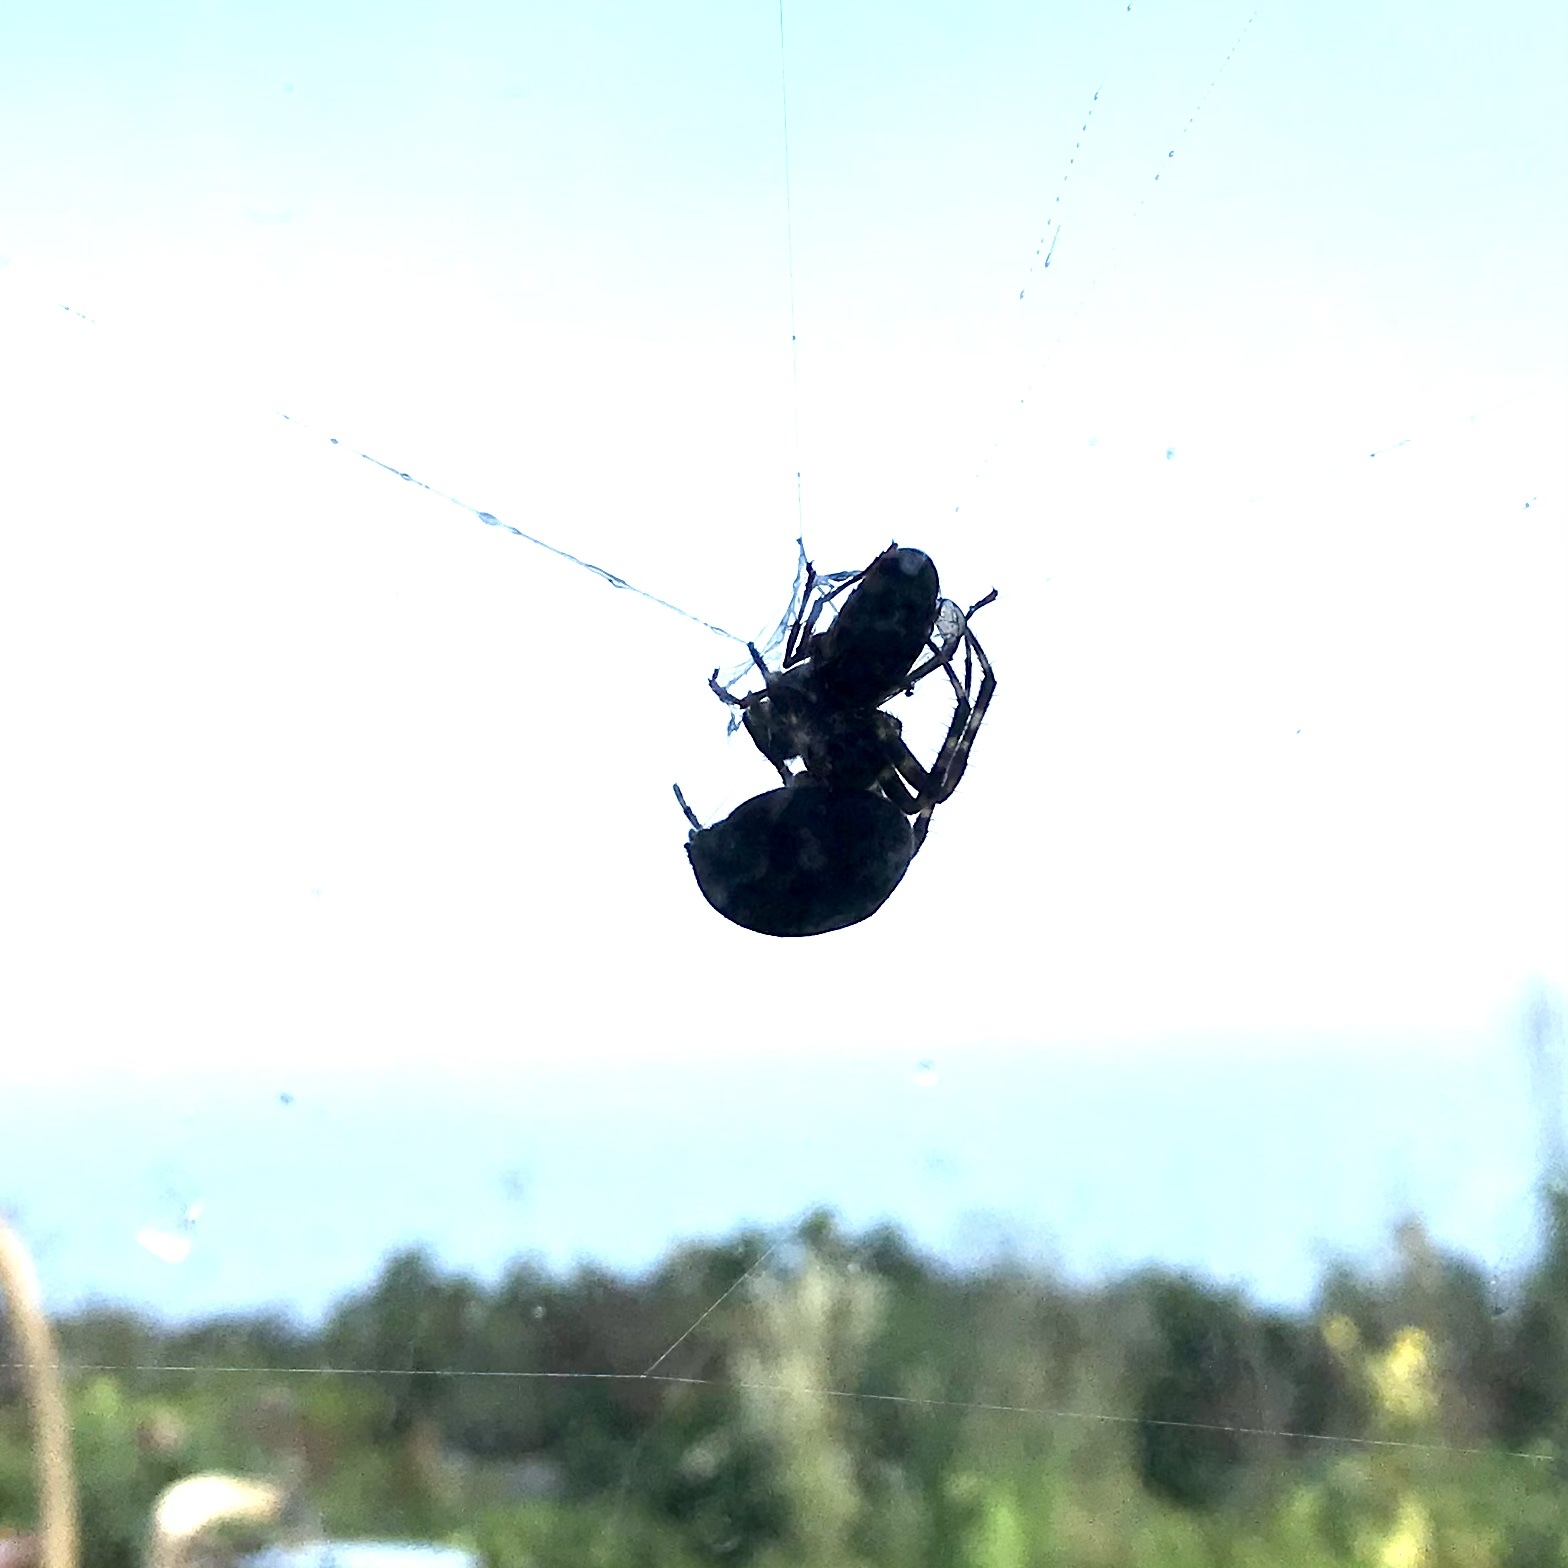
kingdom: Animalia
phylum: Arthropoda
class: Arachnida
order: Araneae
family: Araneidae
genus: Araneus
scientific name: Araneus diadematus
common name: Cross orbweaver
